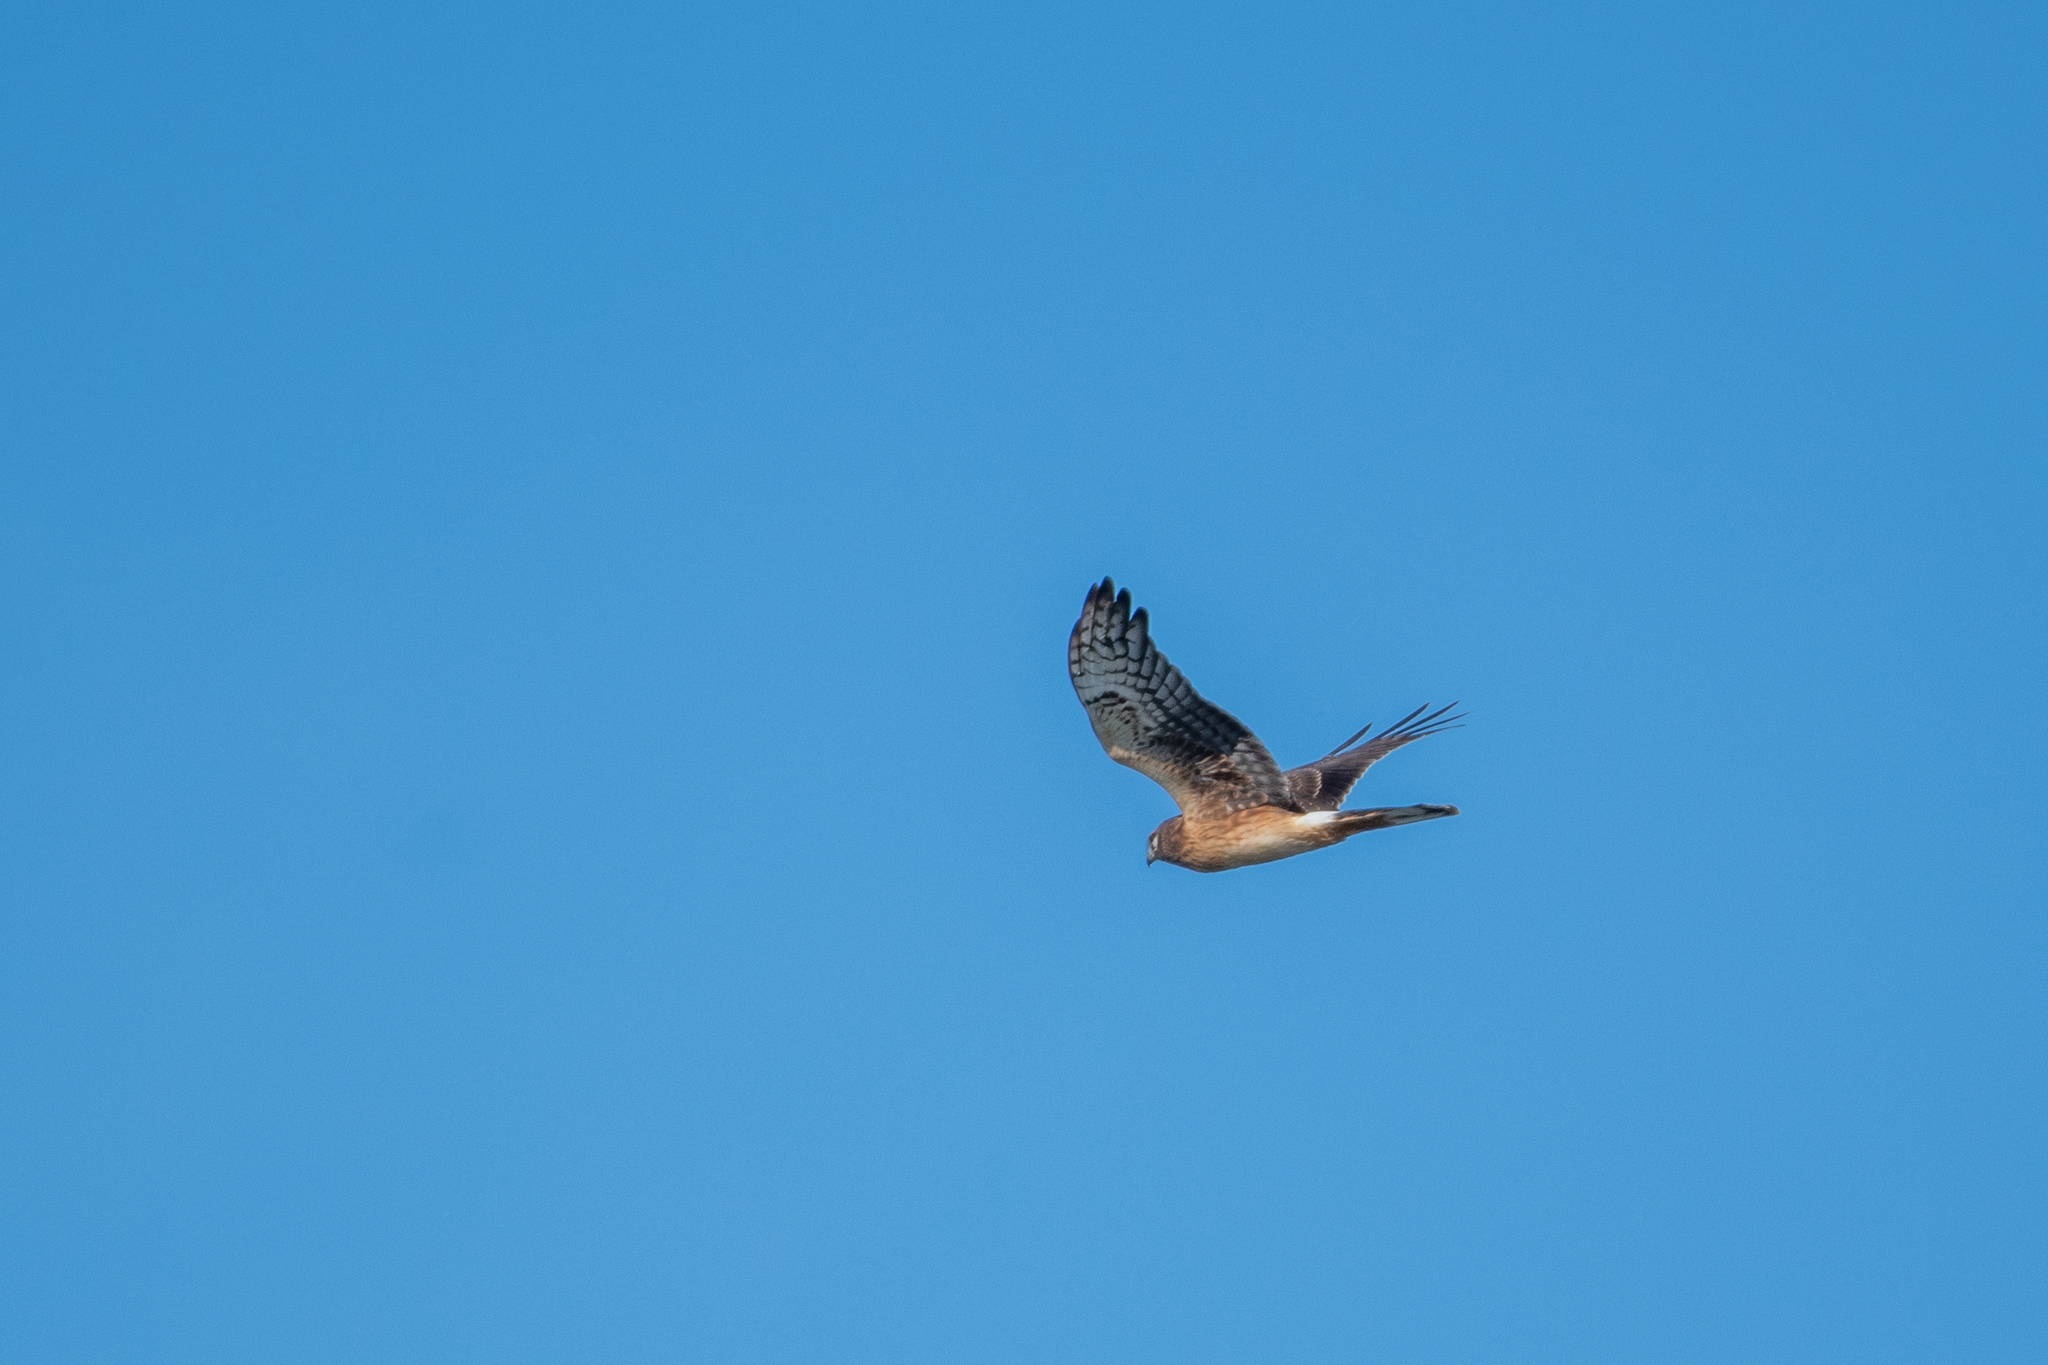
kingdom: Animalia
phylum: Chordata
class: Aves
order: Accipitriformes
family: Accipitridae
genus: Circus
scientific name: Circus cyaneus
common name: Hen harrier
